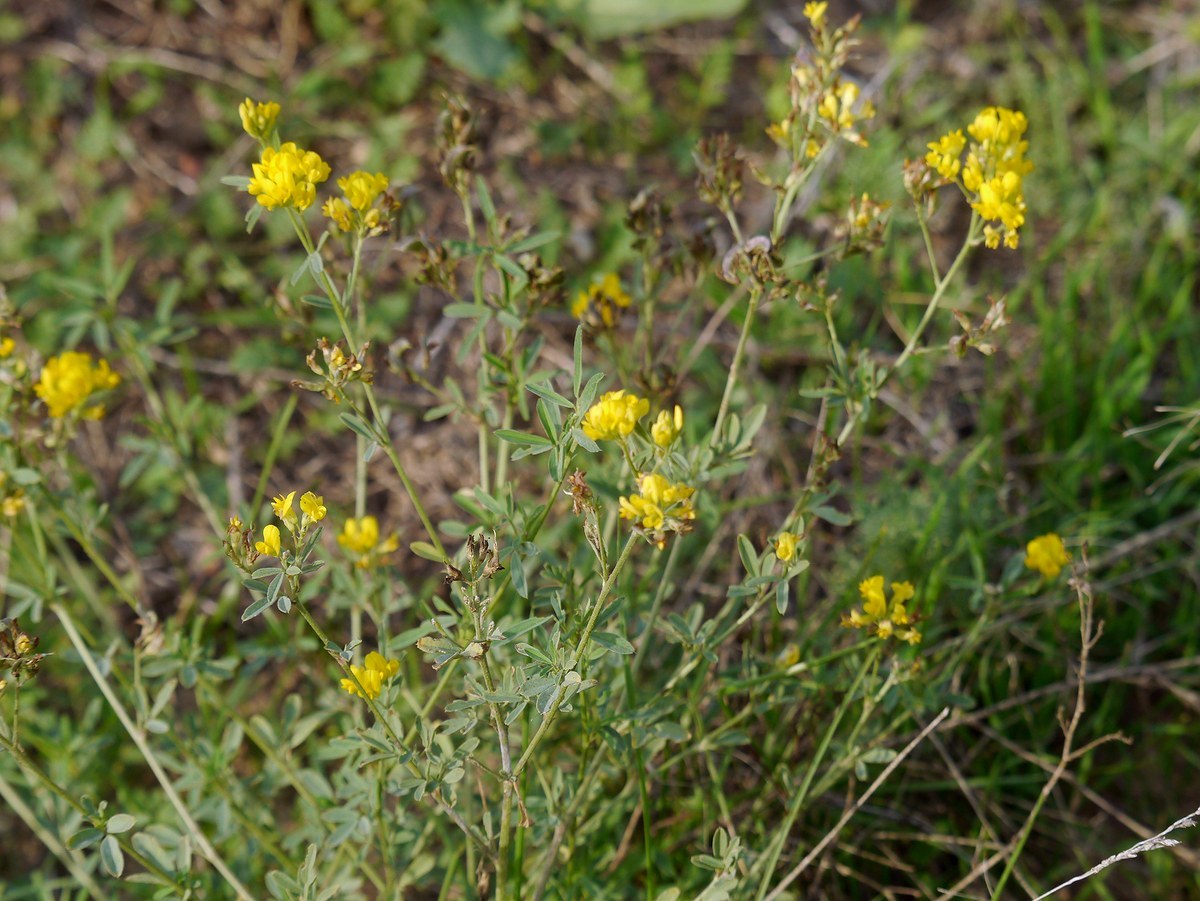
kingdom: Plantae
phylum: Tracheophyta
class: Magnoliopsida
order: Fabales
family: Fabaceae
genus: Medicago
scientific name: Medicago falcata
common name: Sickle medick
